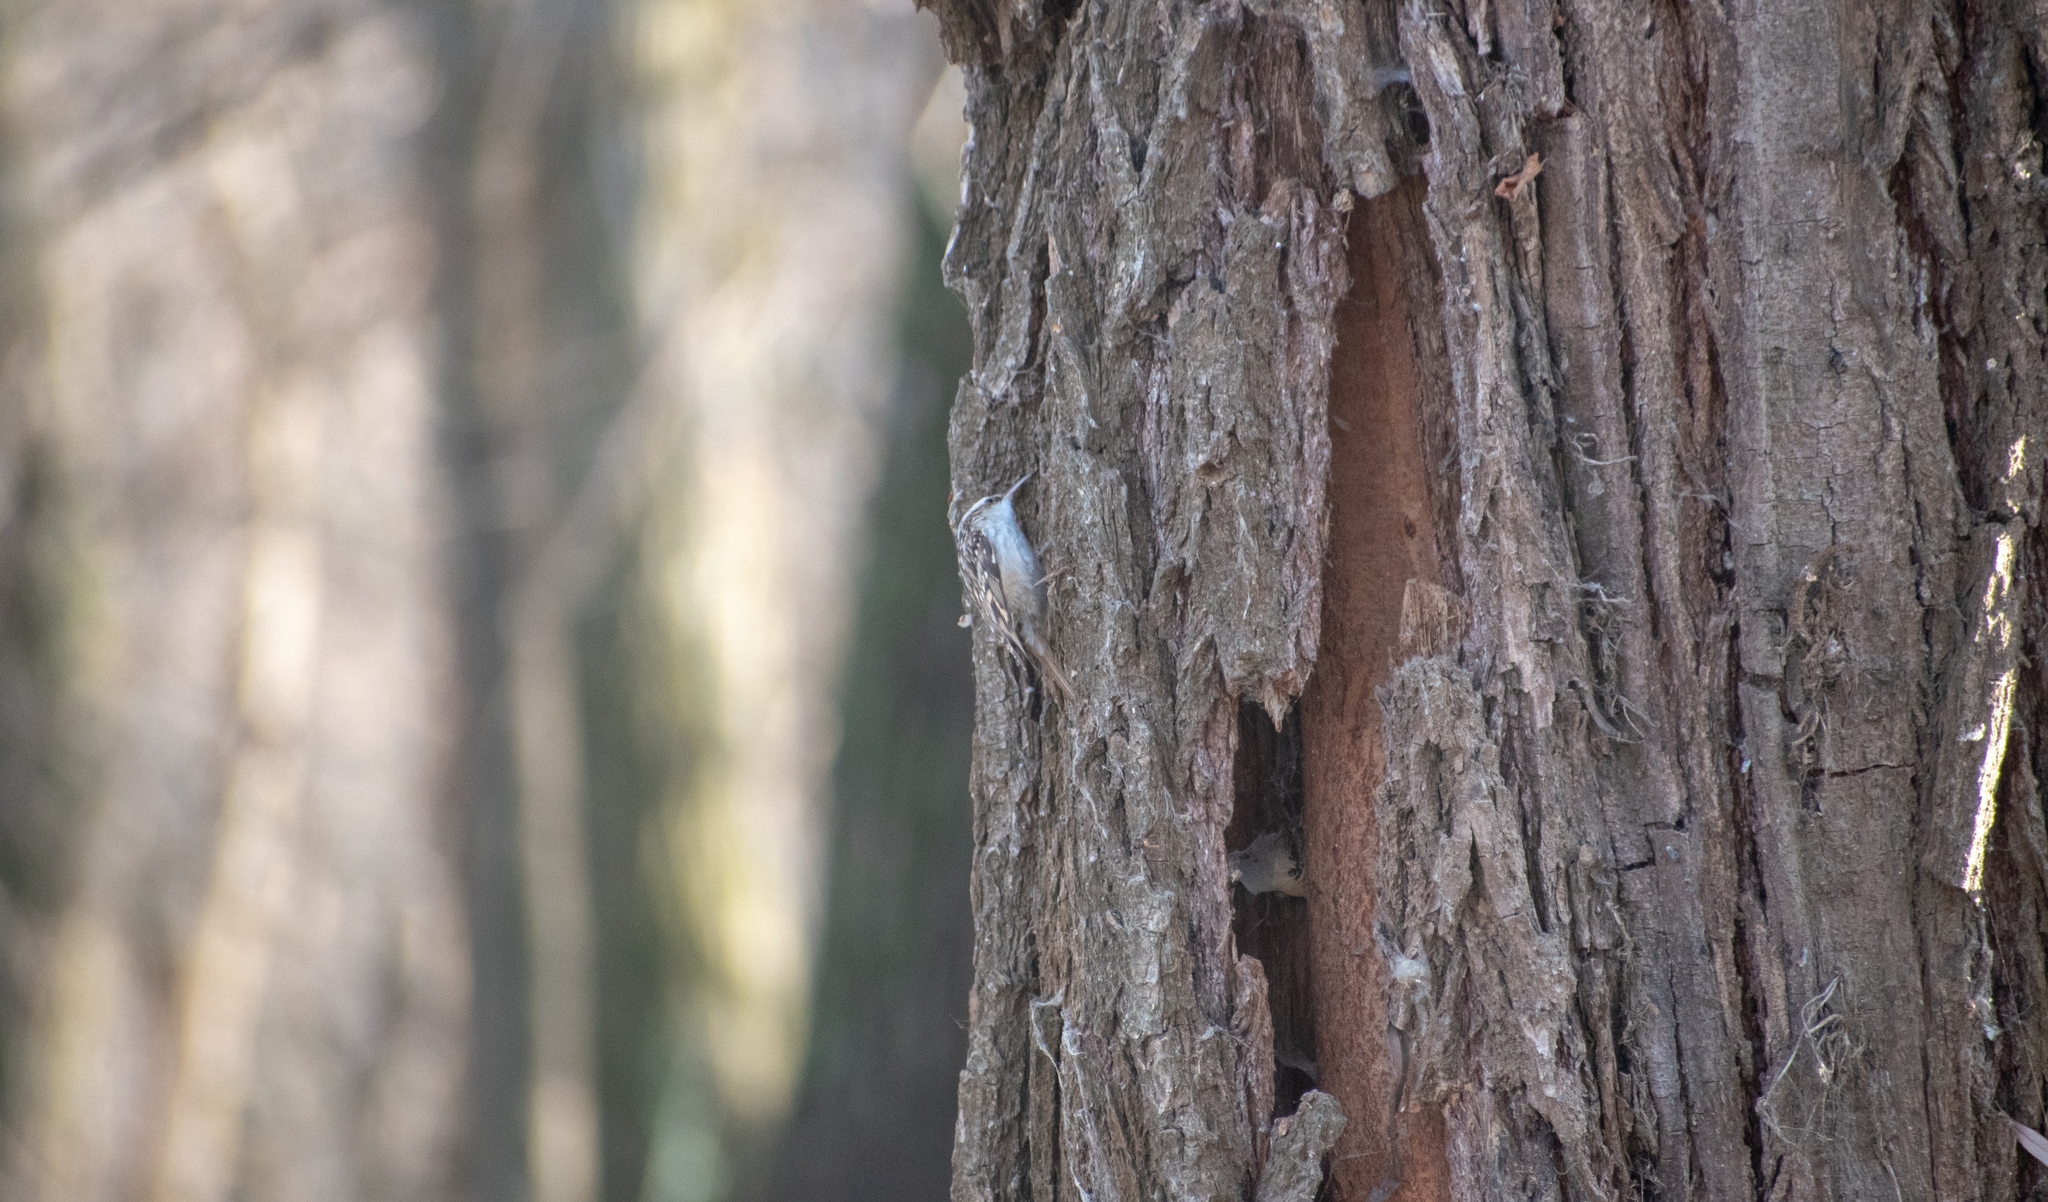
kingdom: Animalia
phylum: Chordata
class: Aves
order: Passeriformes
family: Certhiidae
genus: Certhia
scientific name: Certhia brachydactyla
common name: Short-toed treecreeper
